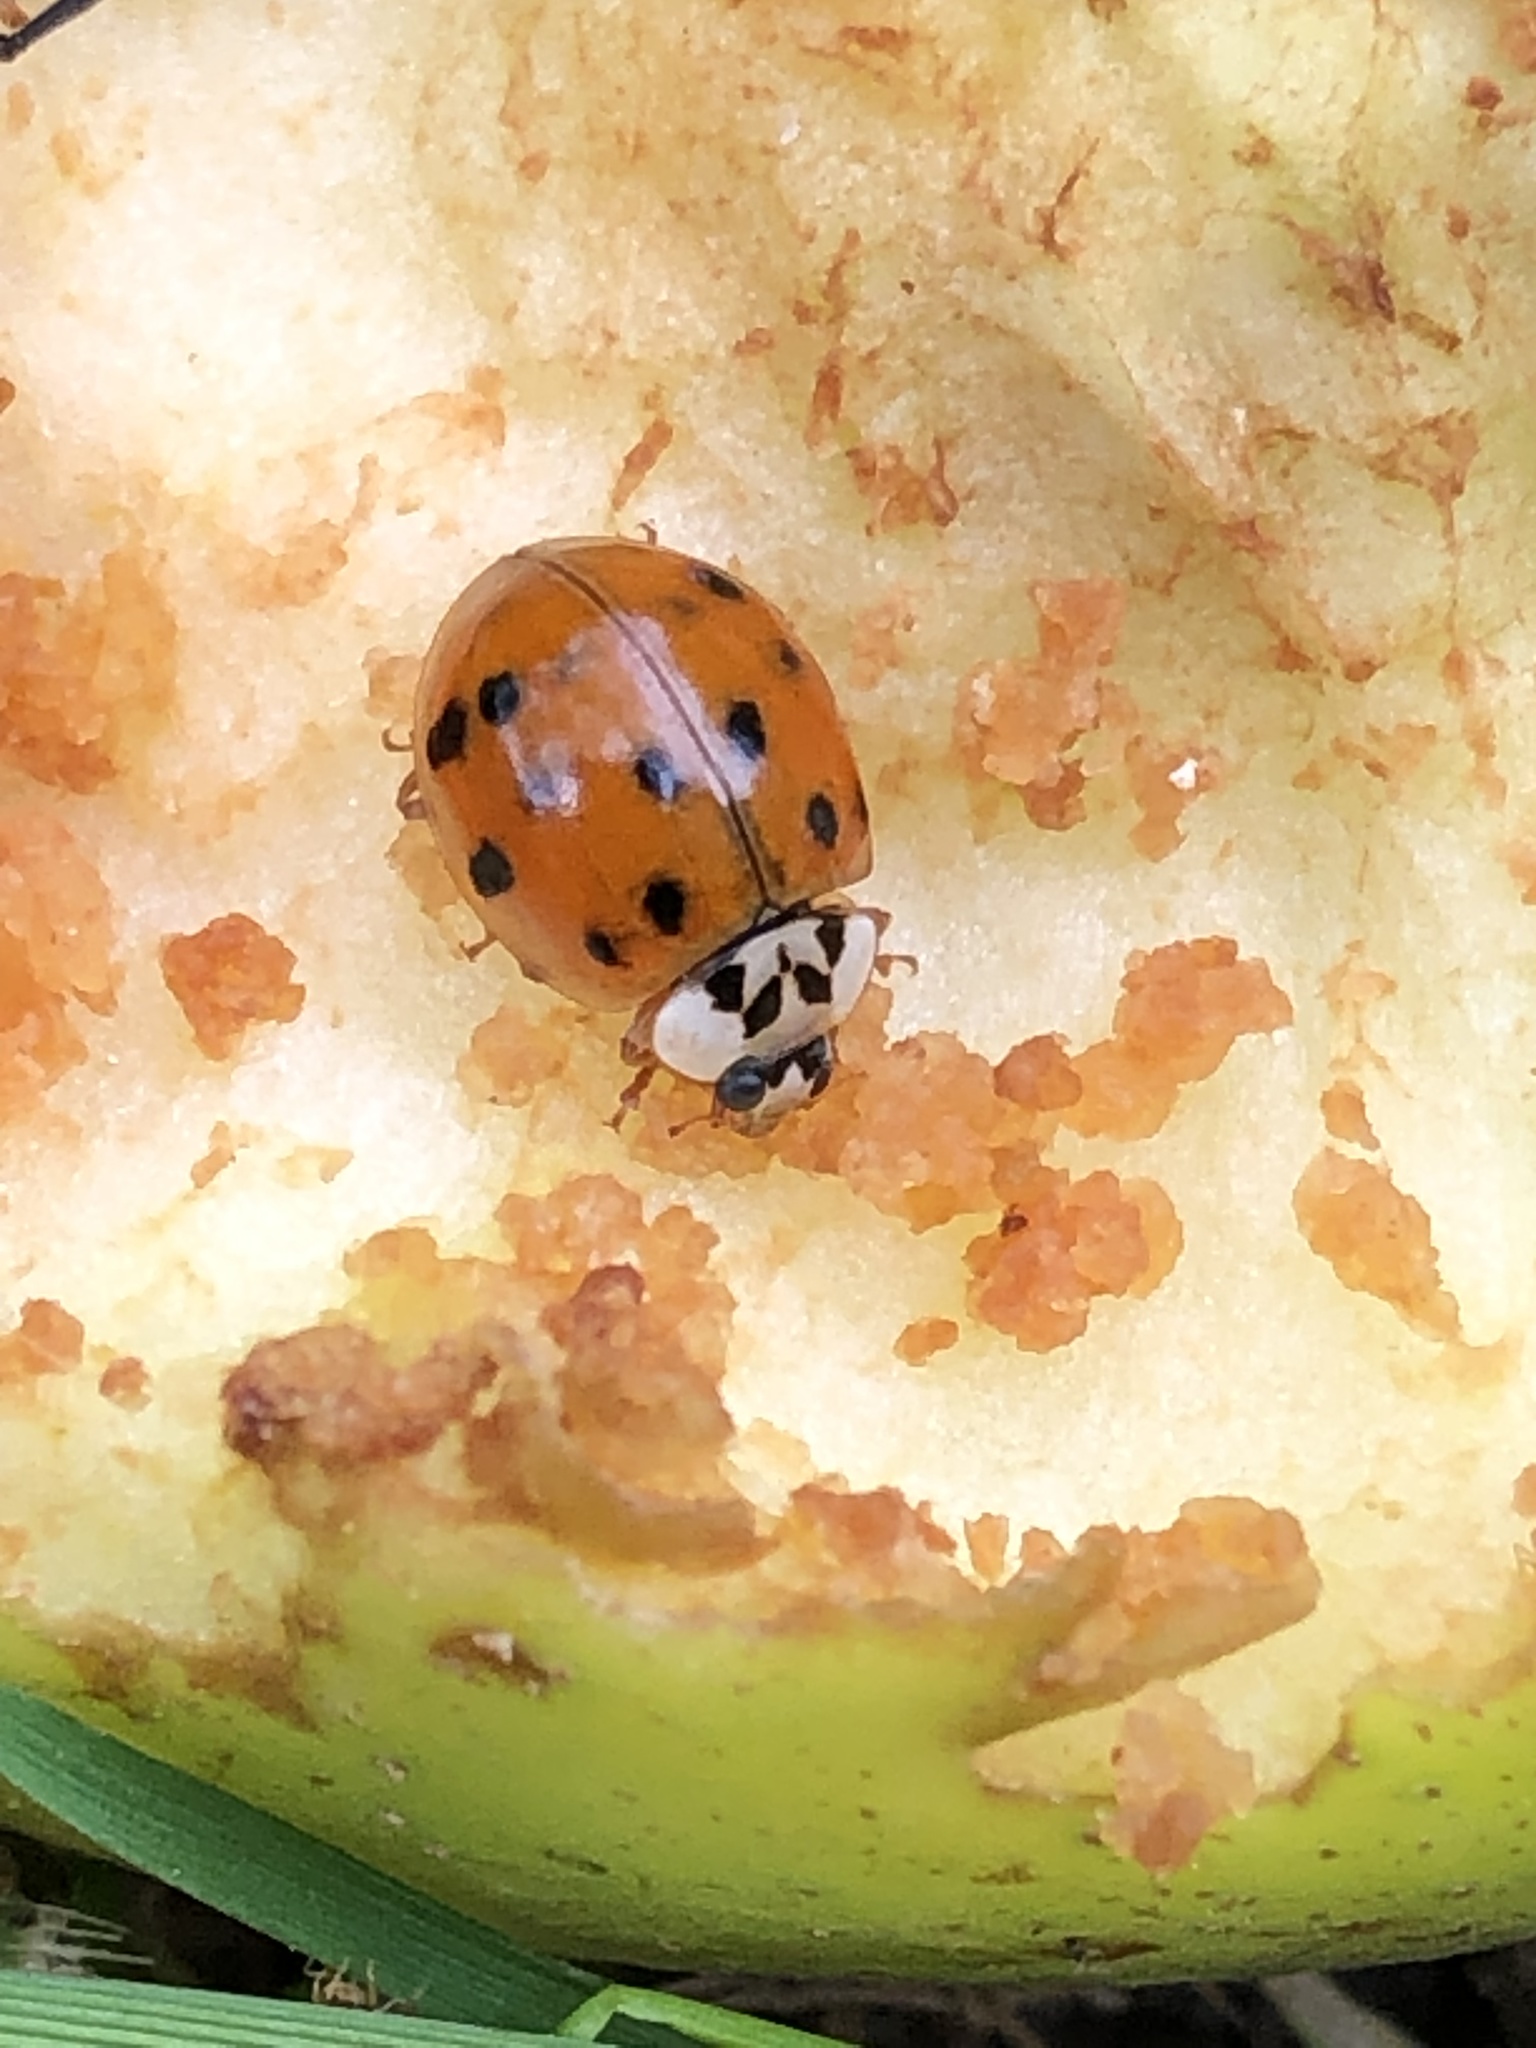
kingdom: Animalia
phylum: Arthropoda
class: Insecta
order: Coleoptera
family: Coccinellidae
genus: Harmonia
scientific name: Harmonia axyridis
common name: Harlequin ladybird
